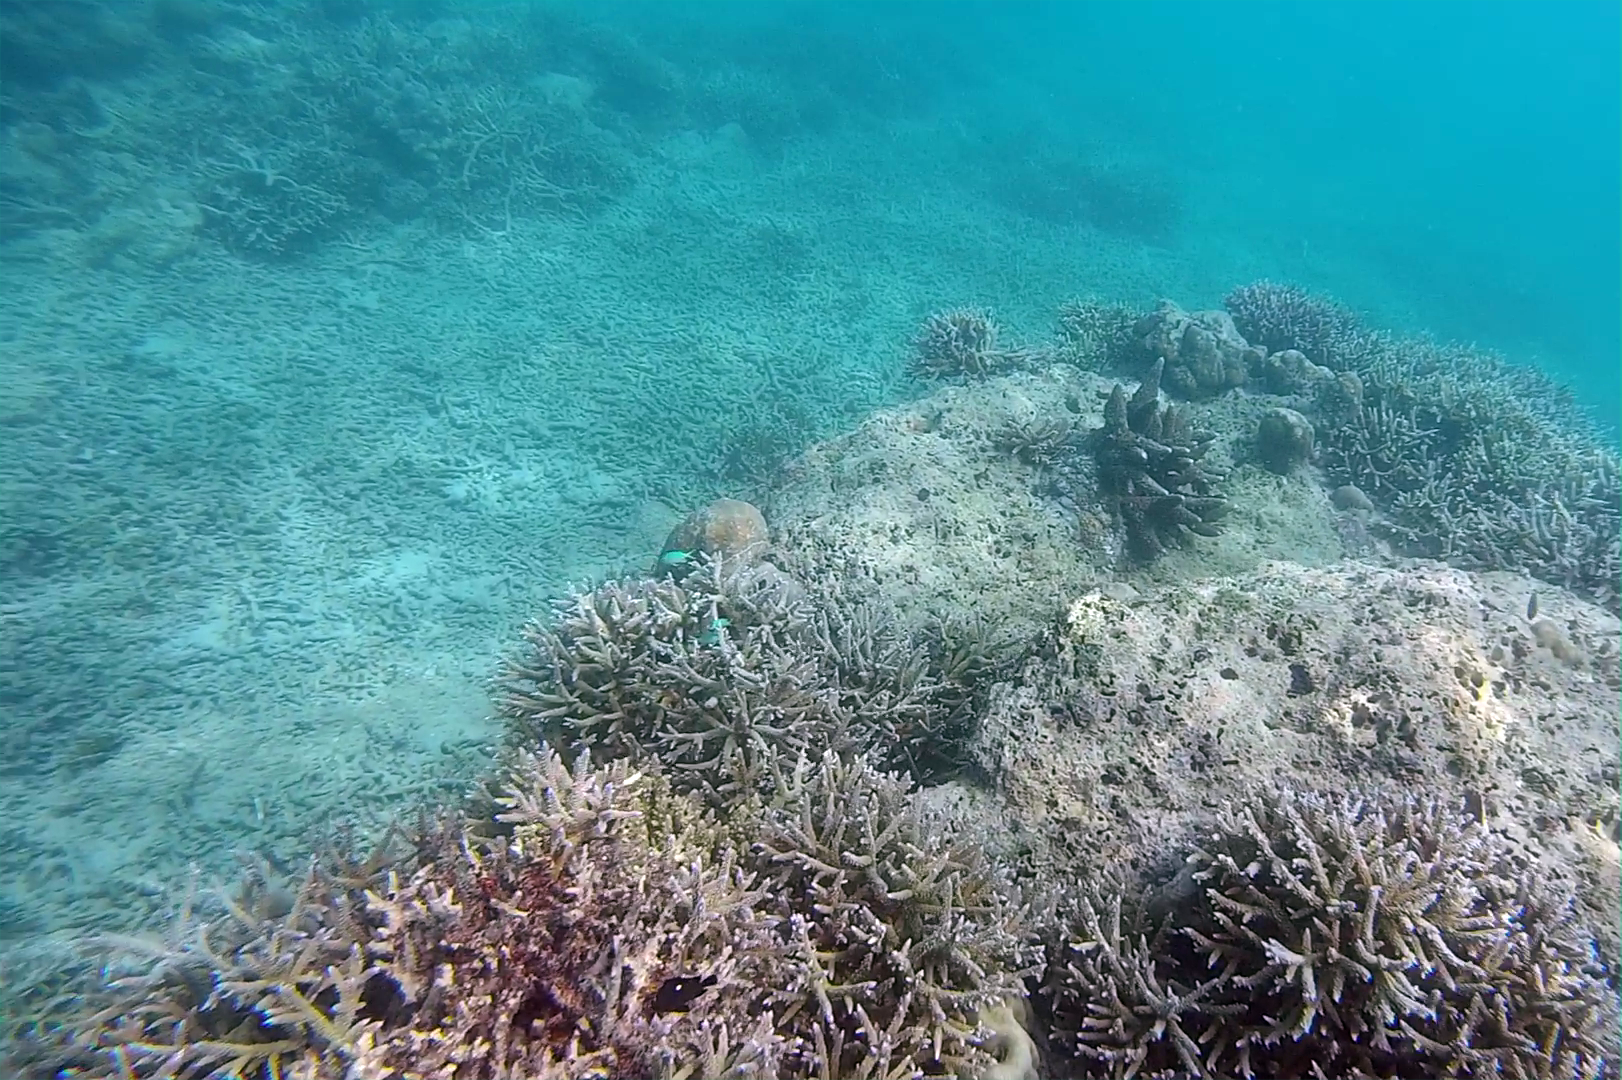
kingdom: Animalia
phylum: Chordata
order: Perciformes
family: Pomacentridae
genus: Dascyllus
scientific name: Dascyllus trimaculatus
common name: Threespot dascyllus
